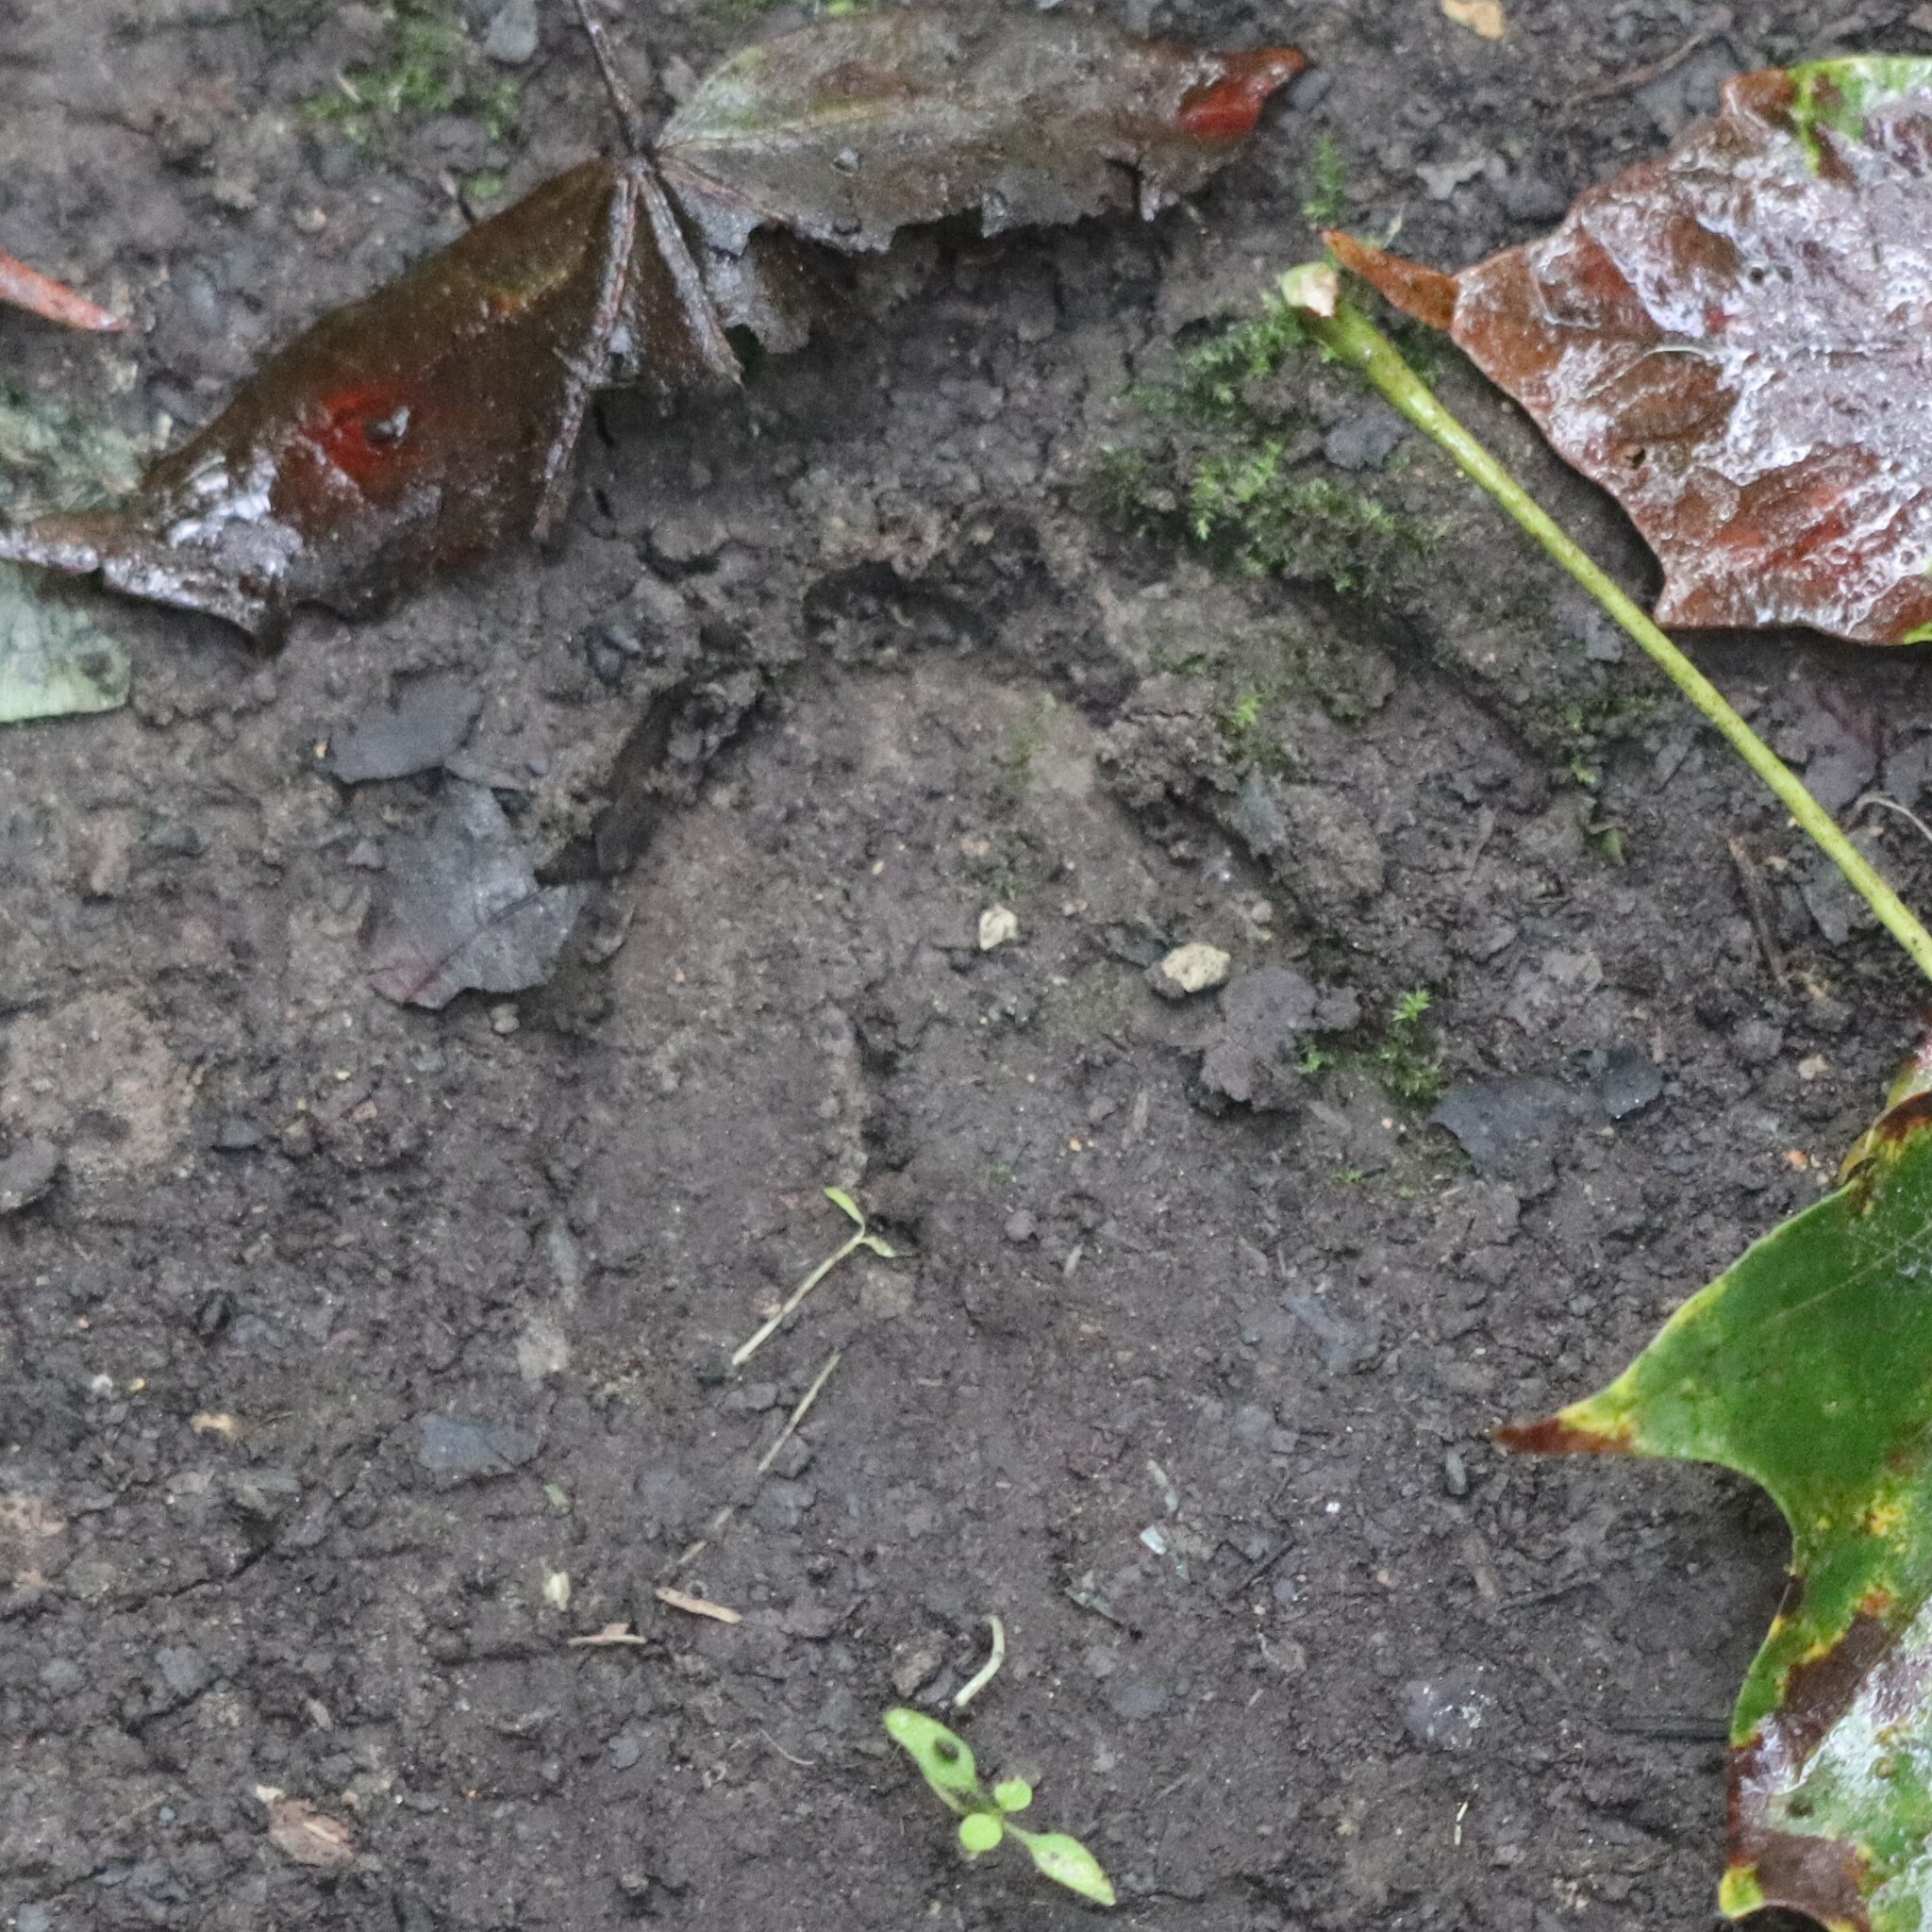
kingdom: Animalia
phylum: Chordata
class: Mammalia
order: Artiodactyla
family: Cervidae
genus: Odocoileus
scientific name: Odocoileus virginianus
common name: White-tailed deer
